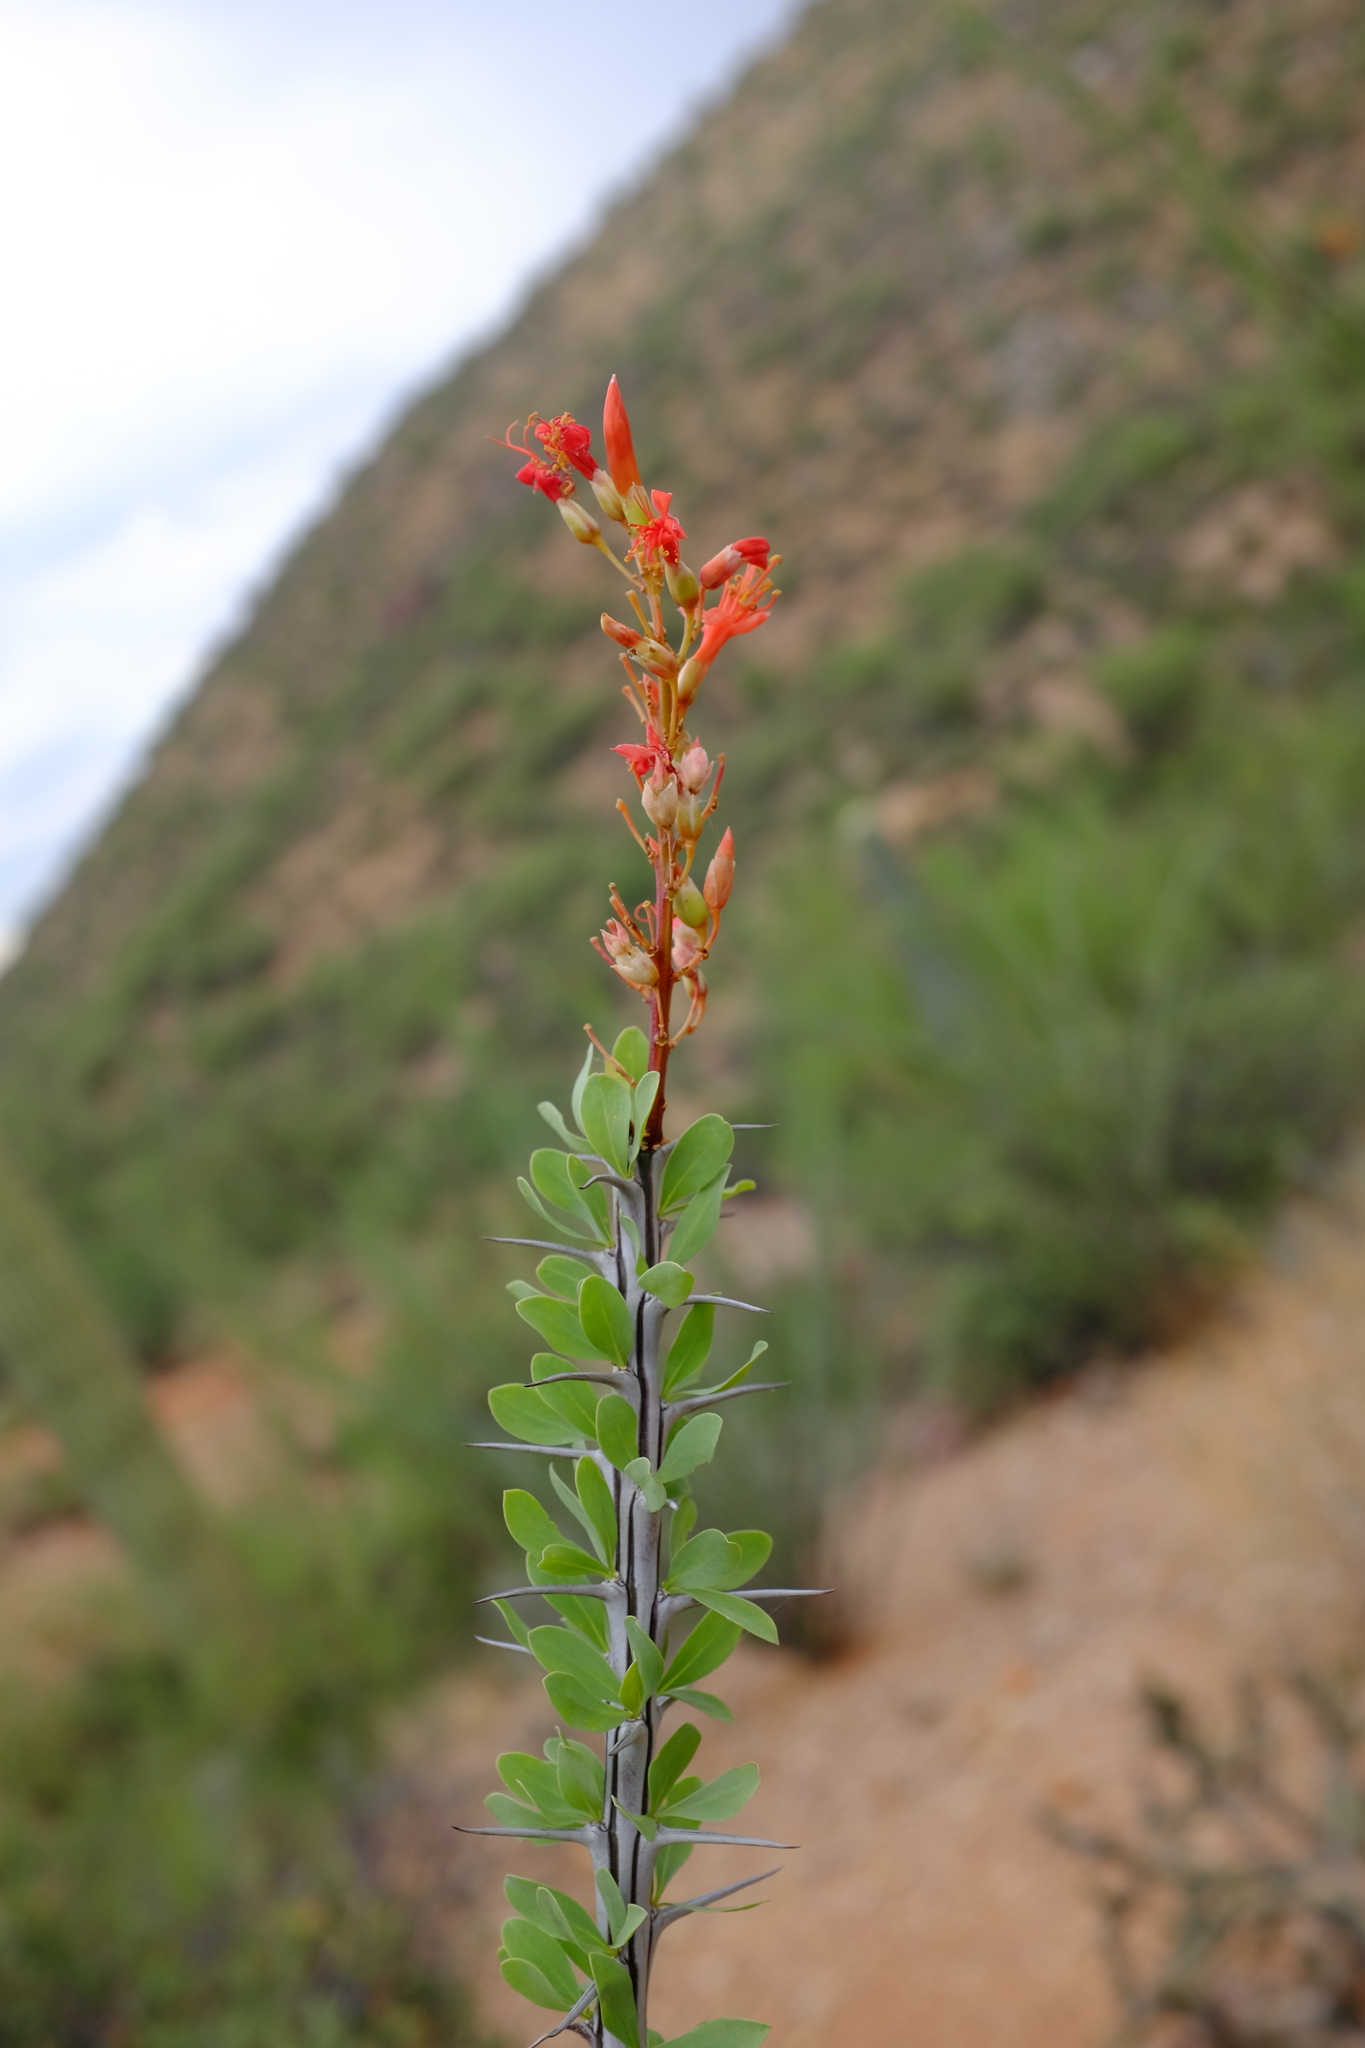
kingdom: Plantae
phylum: Tracheophyta
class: Magnoliopsida
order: Ericales
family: Fouquieriaceae
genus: Fouquieria
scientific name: Fouquieria splendens
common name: Vine-cactus
